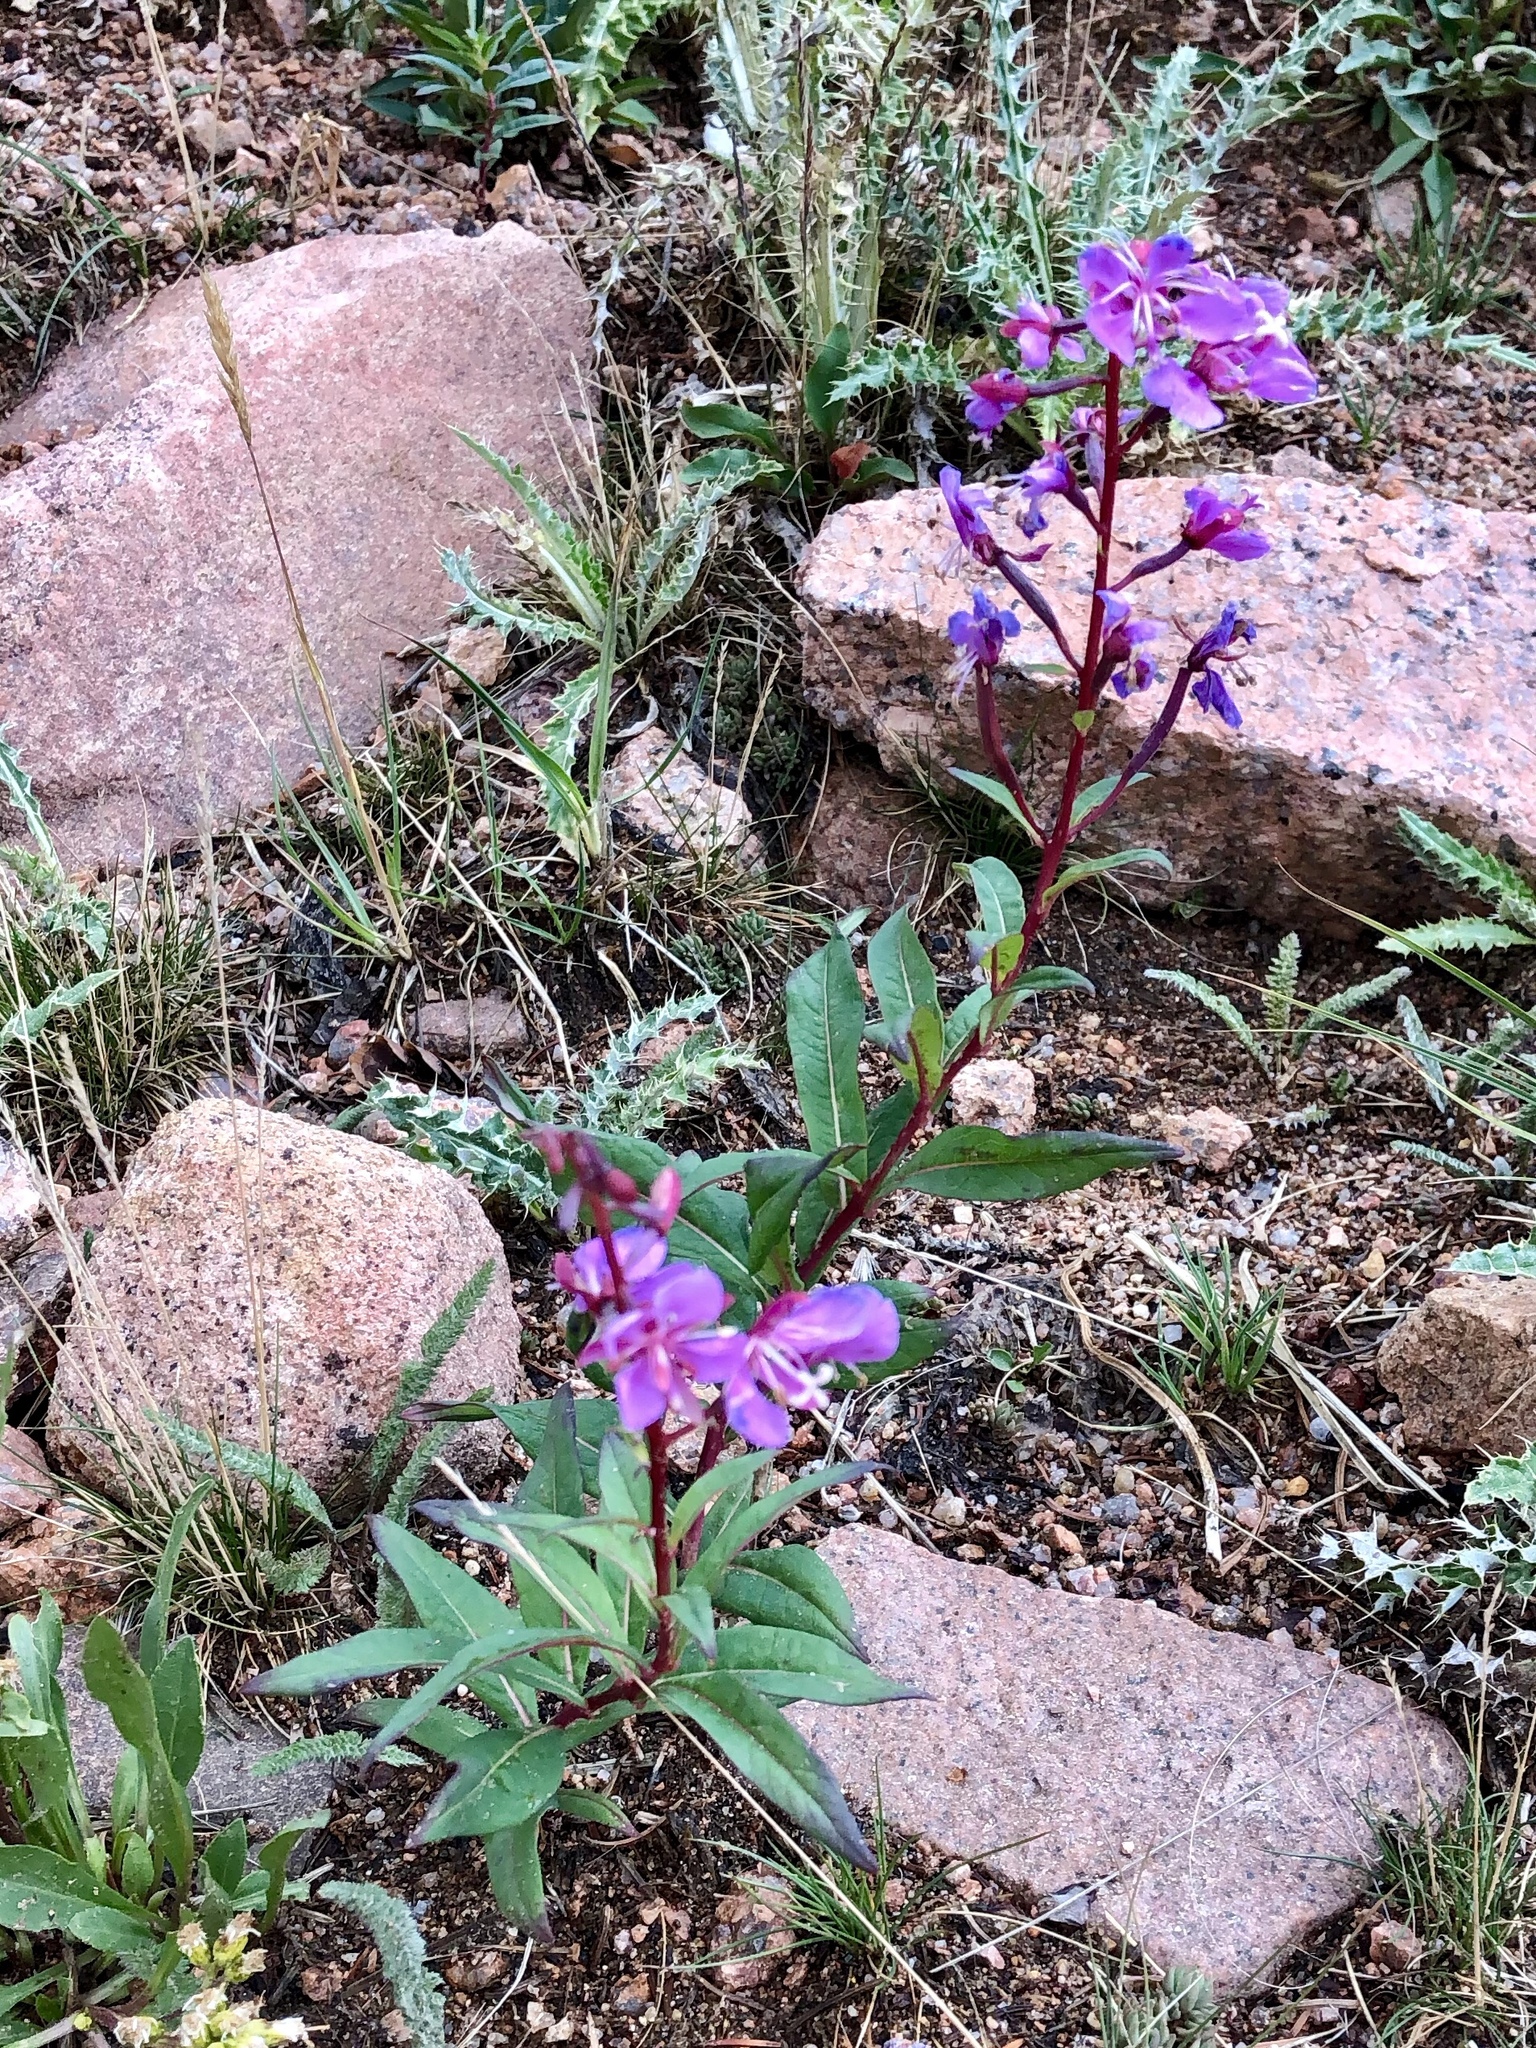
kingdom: Plantae
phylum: Tracheophyta
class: Magnoliopsida
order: Myrtales
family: Onagraceae
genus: Chamaenerion
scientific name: Chamaenerion angustifolium
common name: Fireweed
